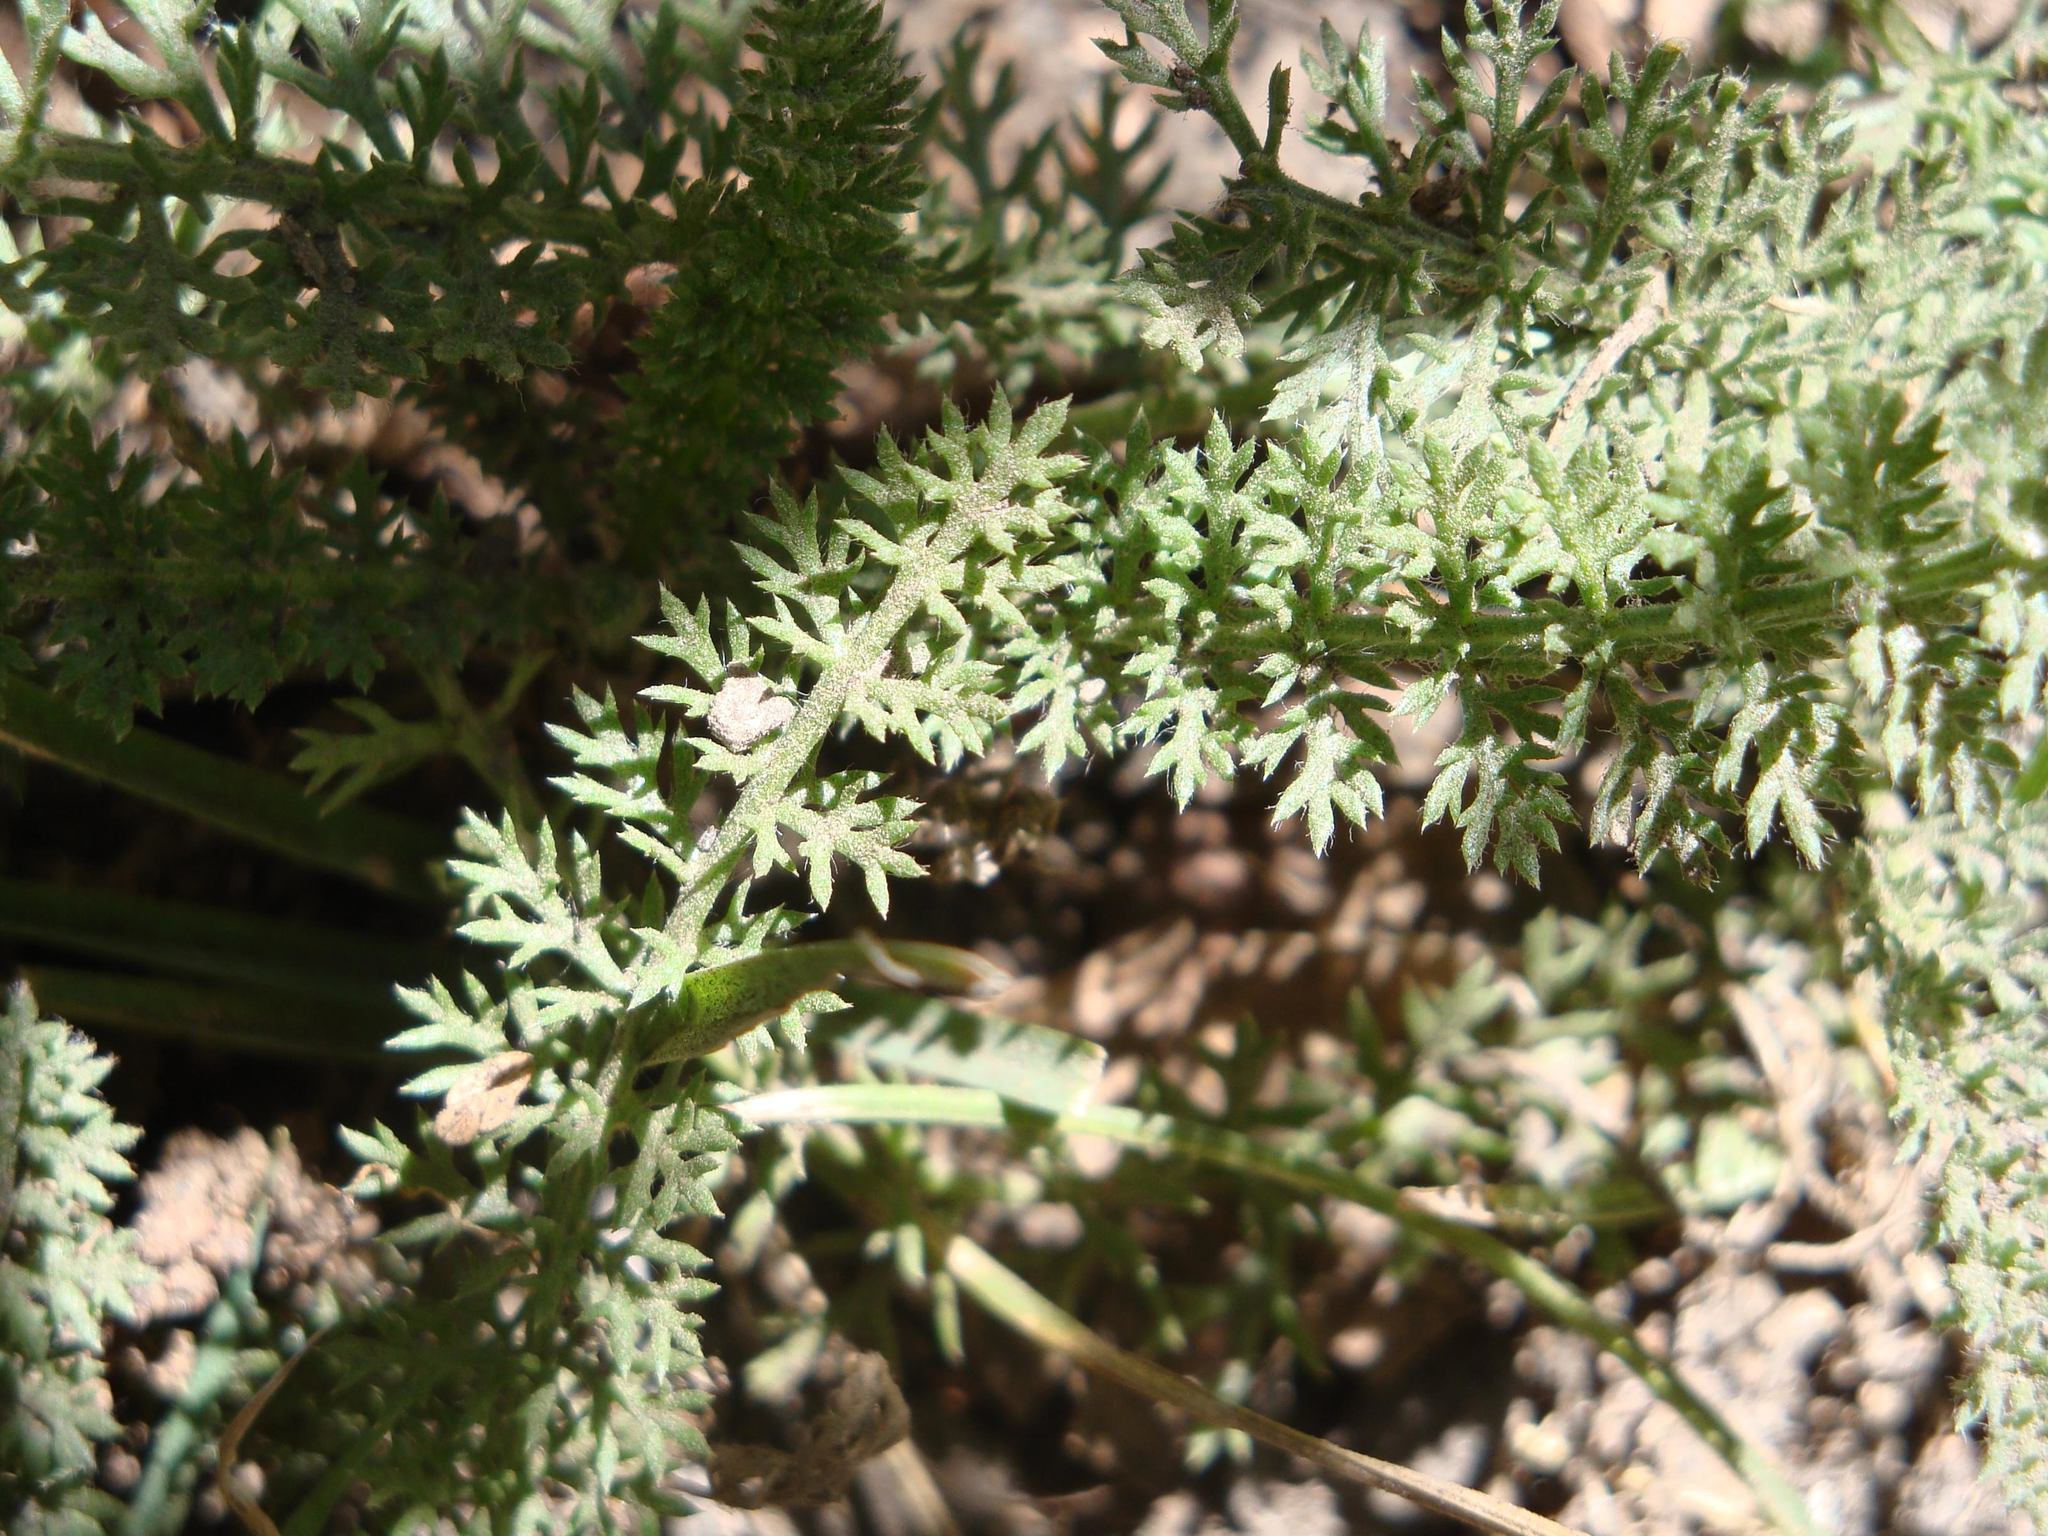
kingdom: Plantae
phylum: Tracheophyta
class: Magnoliopsida
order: Asterales
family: Asteraceae
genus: Achillea
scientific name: Achillea millefolium
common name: Yarrow
